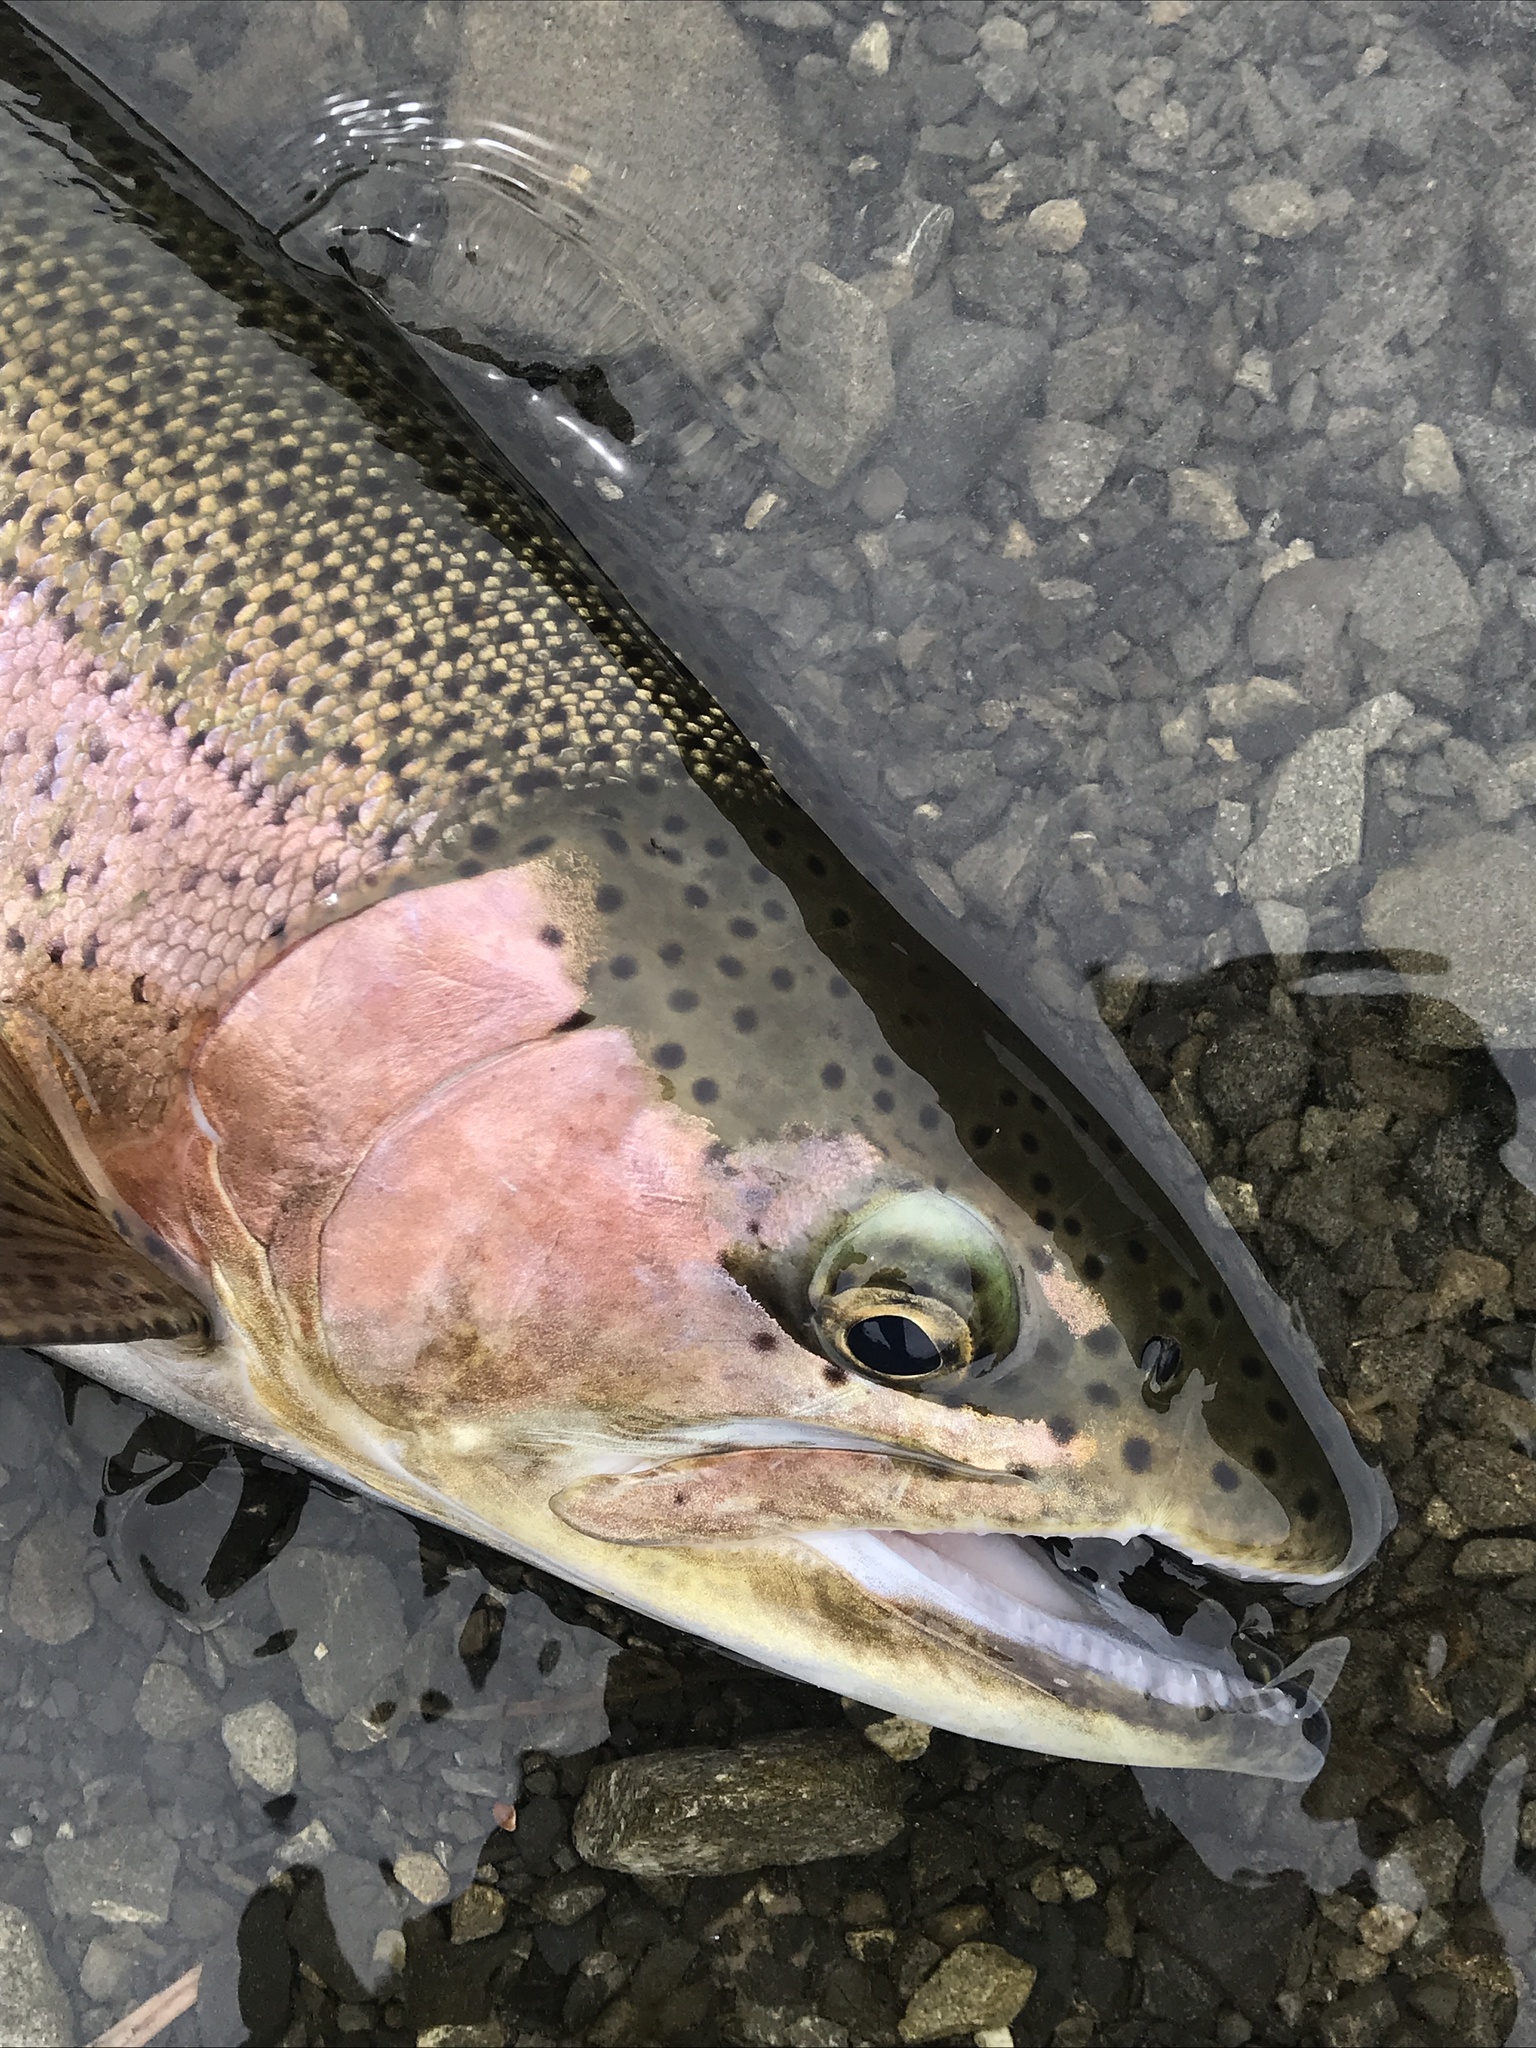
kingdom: Animalia
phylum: Chordata
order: Salmoniformes
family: Salmonidae
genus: Oncorhynchus
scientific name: Oncorhynchus mykiss
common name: Rainbow trout
